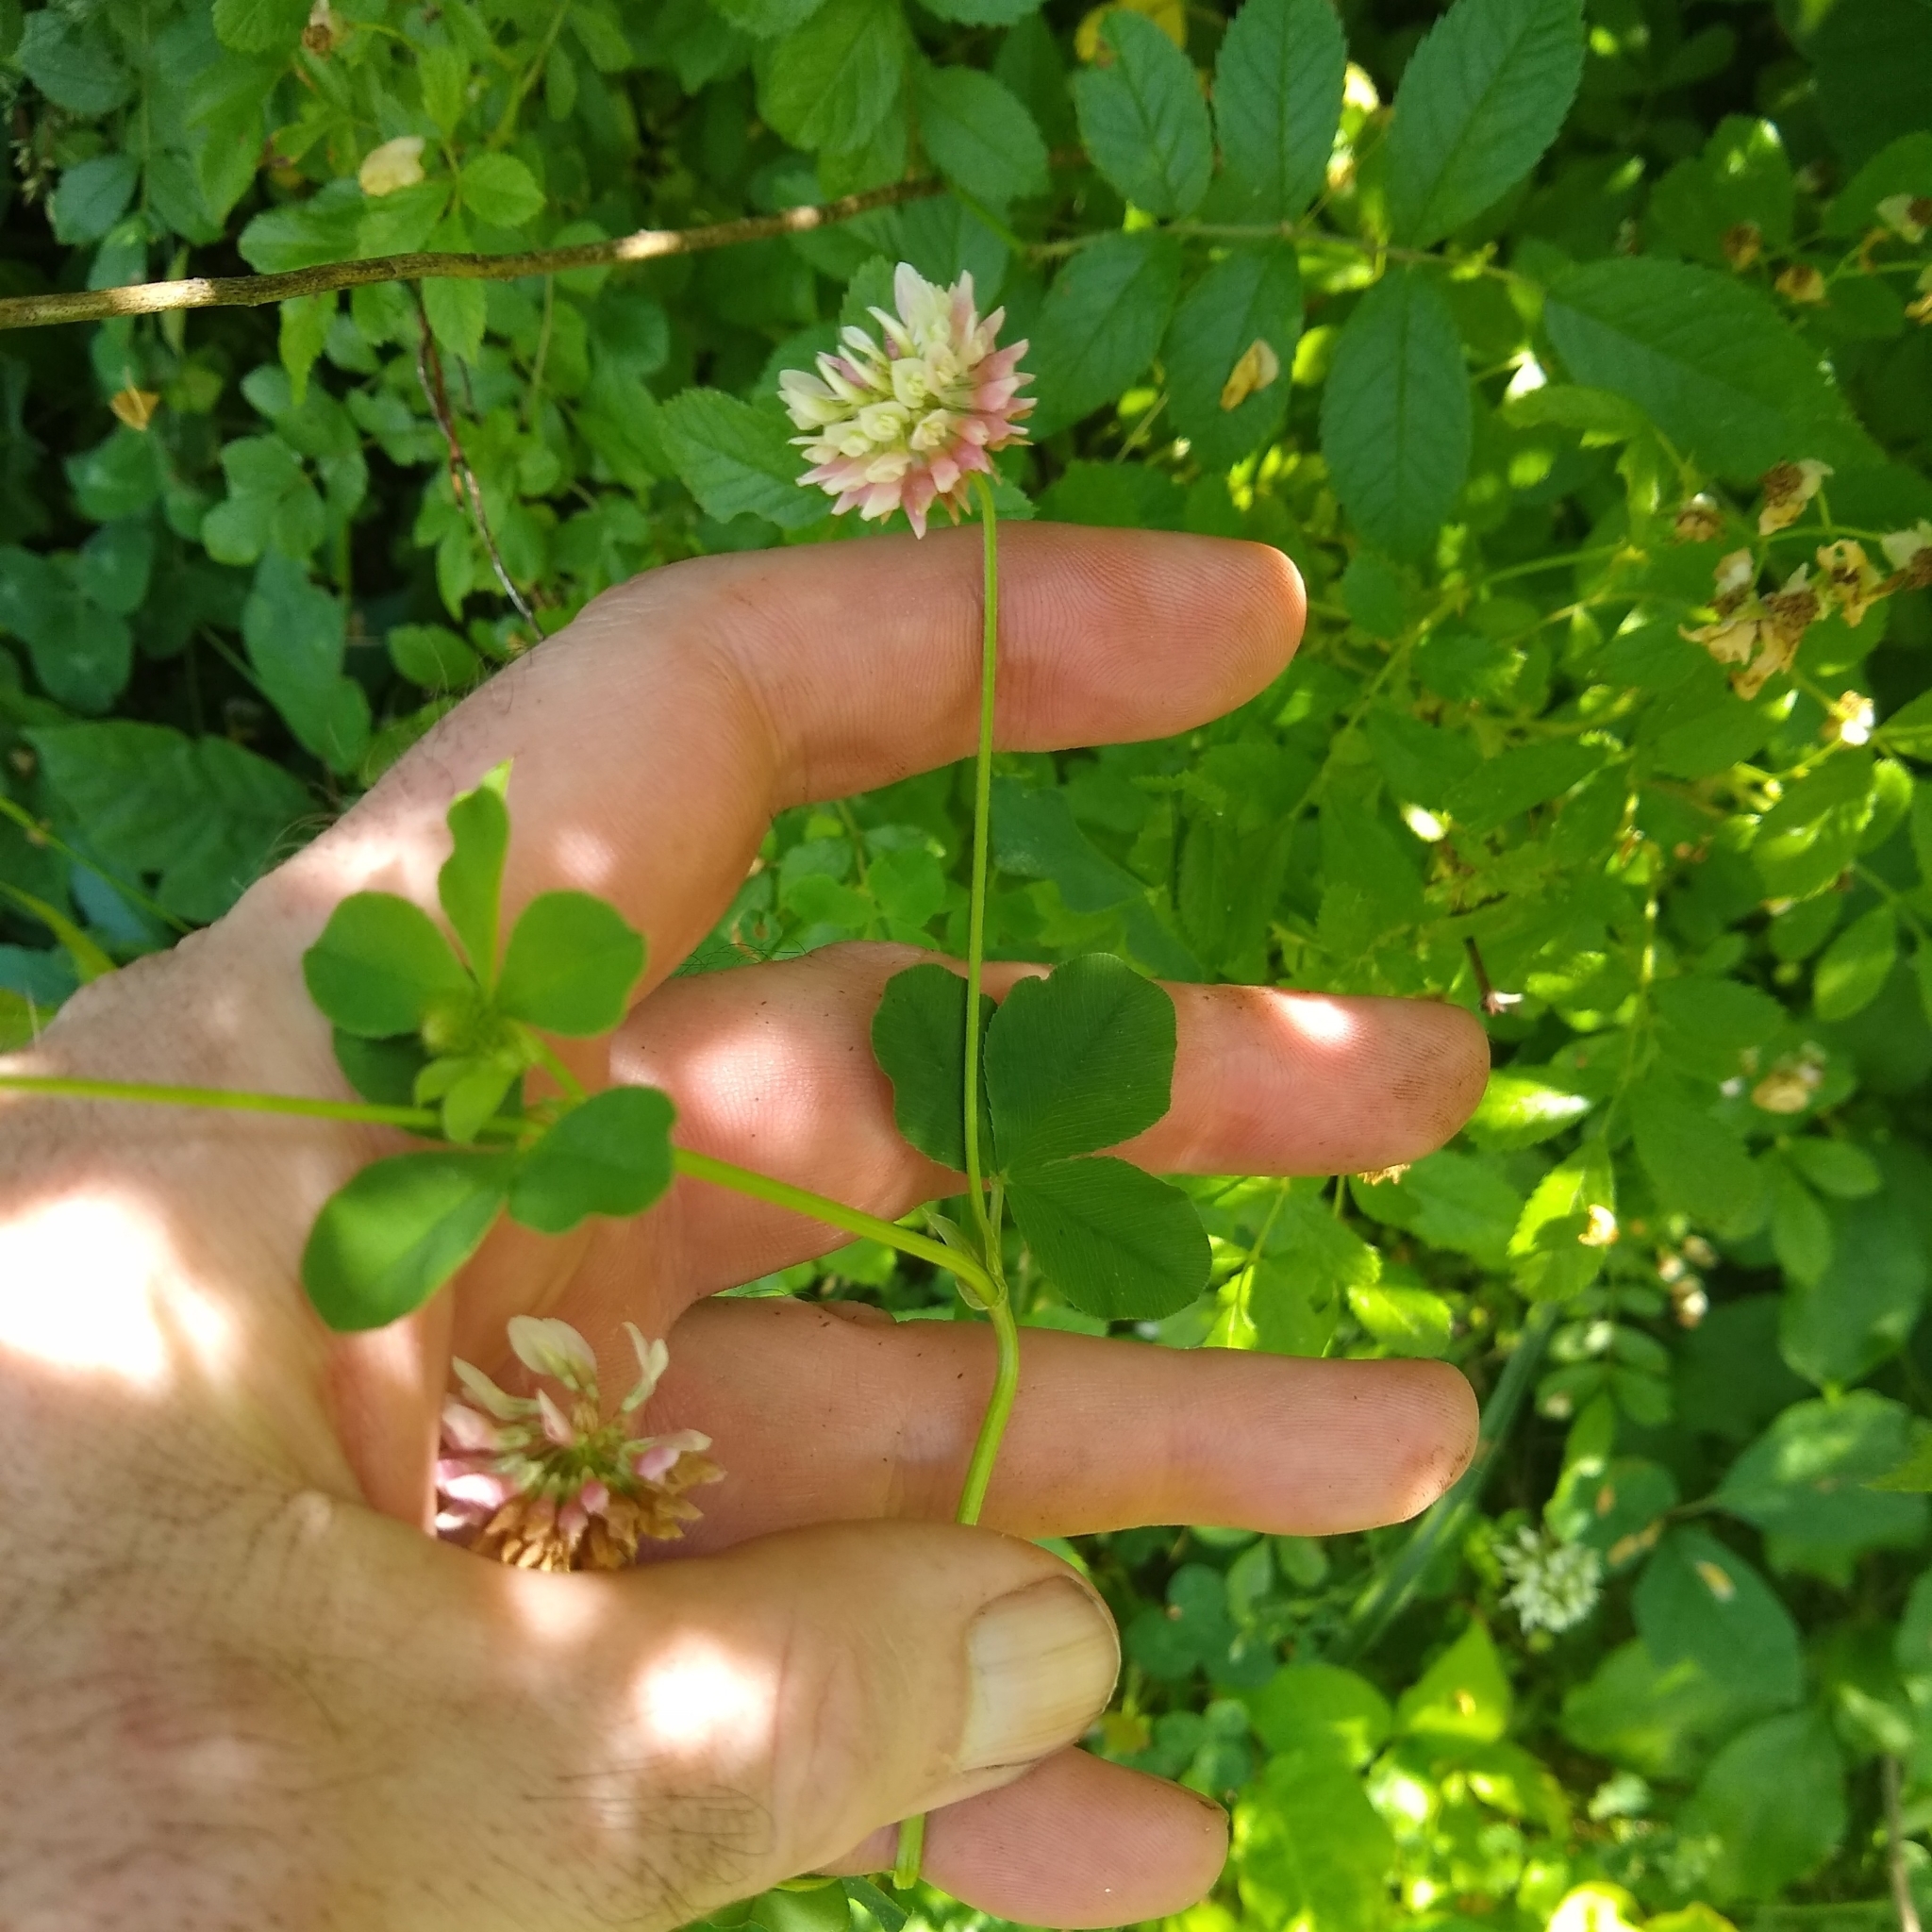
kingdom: Plantae
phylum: Tracheophyta
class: Magnoliopsida
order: Fabales
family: Fabaceae
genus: Trifolium
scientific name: Trifolium hybridum
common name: Alsike clover
